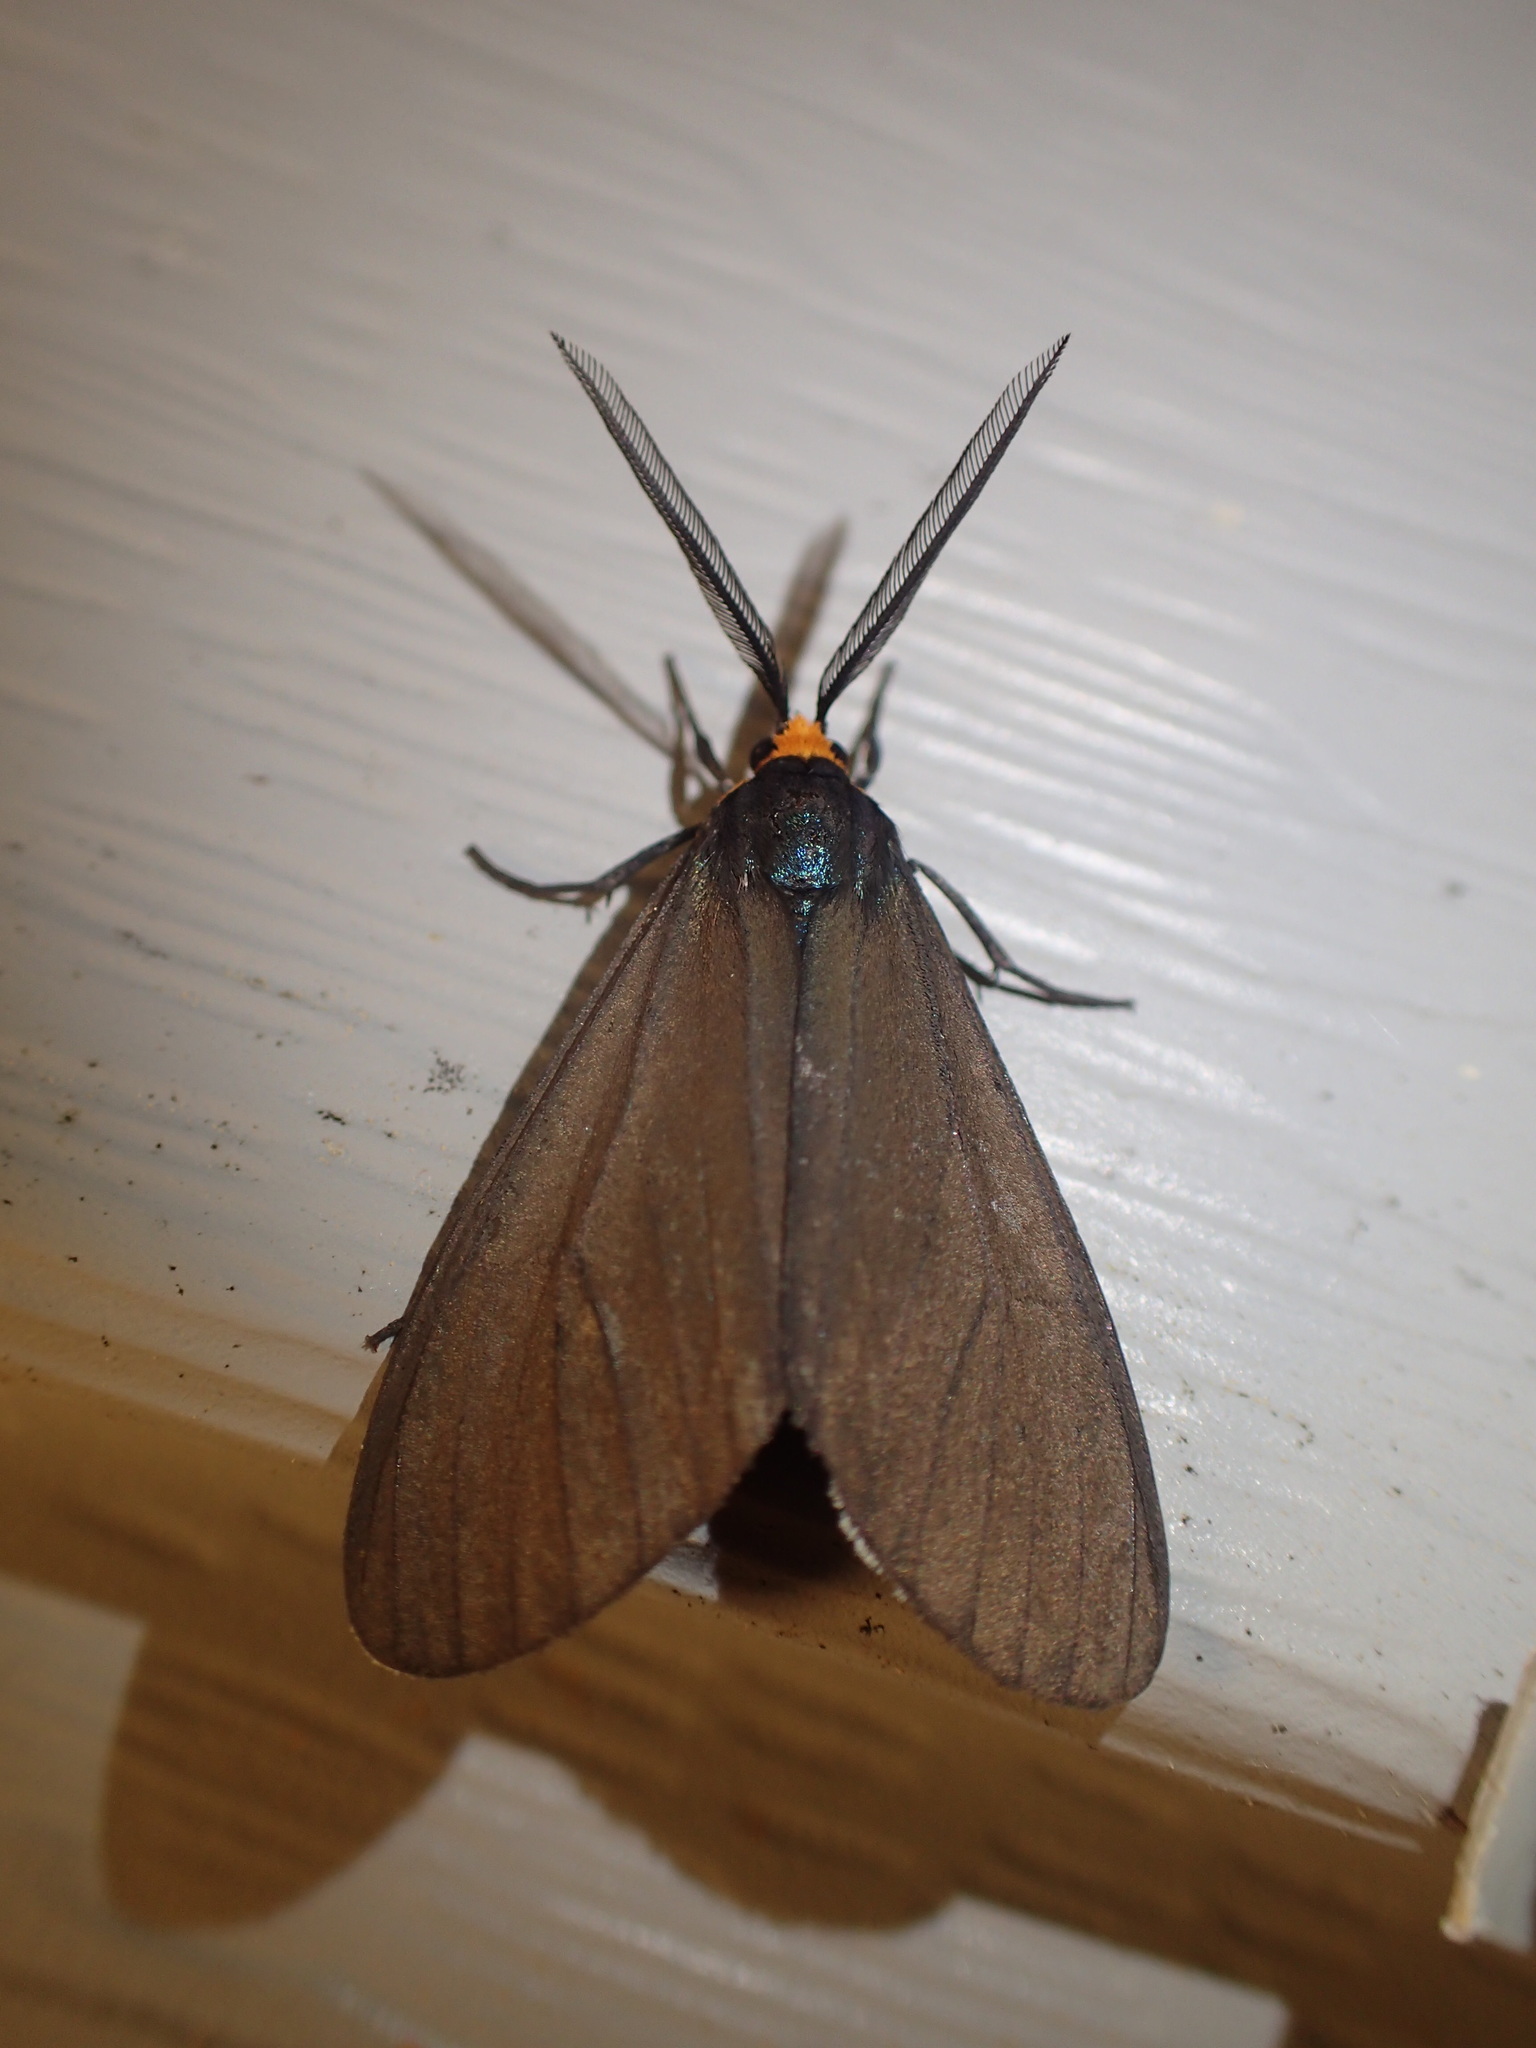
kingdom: Animalia
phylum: Arthropoda
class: Insecta
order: Lepidoptera
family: Erebidae
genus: Ctenucha
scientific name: Ctenucha virginica
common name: Virginia ctenucha moth
